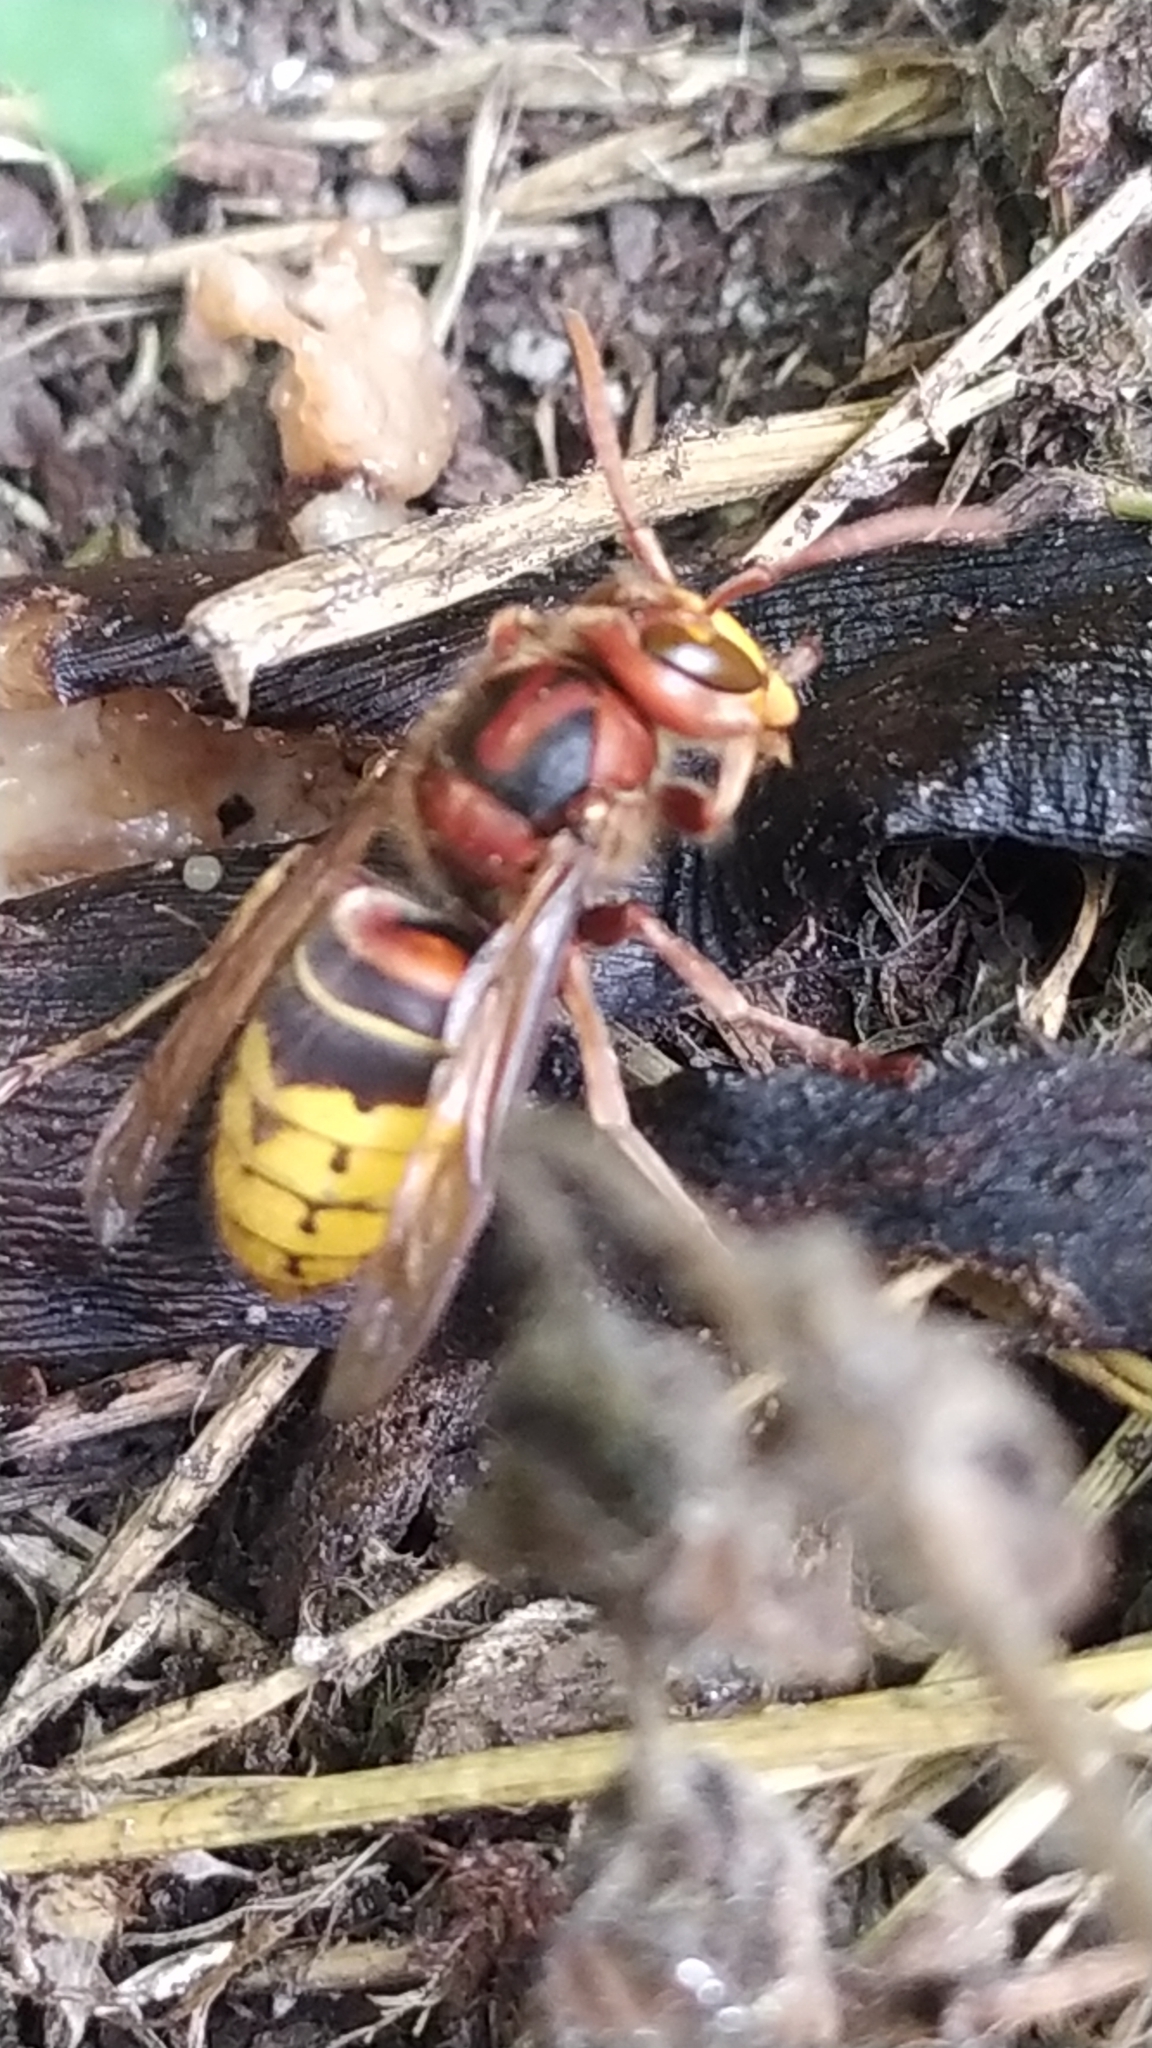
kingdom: Animalia
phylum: Arthropoda
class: Insecta
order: Hymenoptera
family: Vespidae
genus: Vespa
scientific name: Vespa crabro
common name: Hornet
